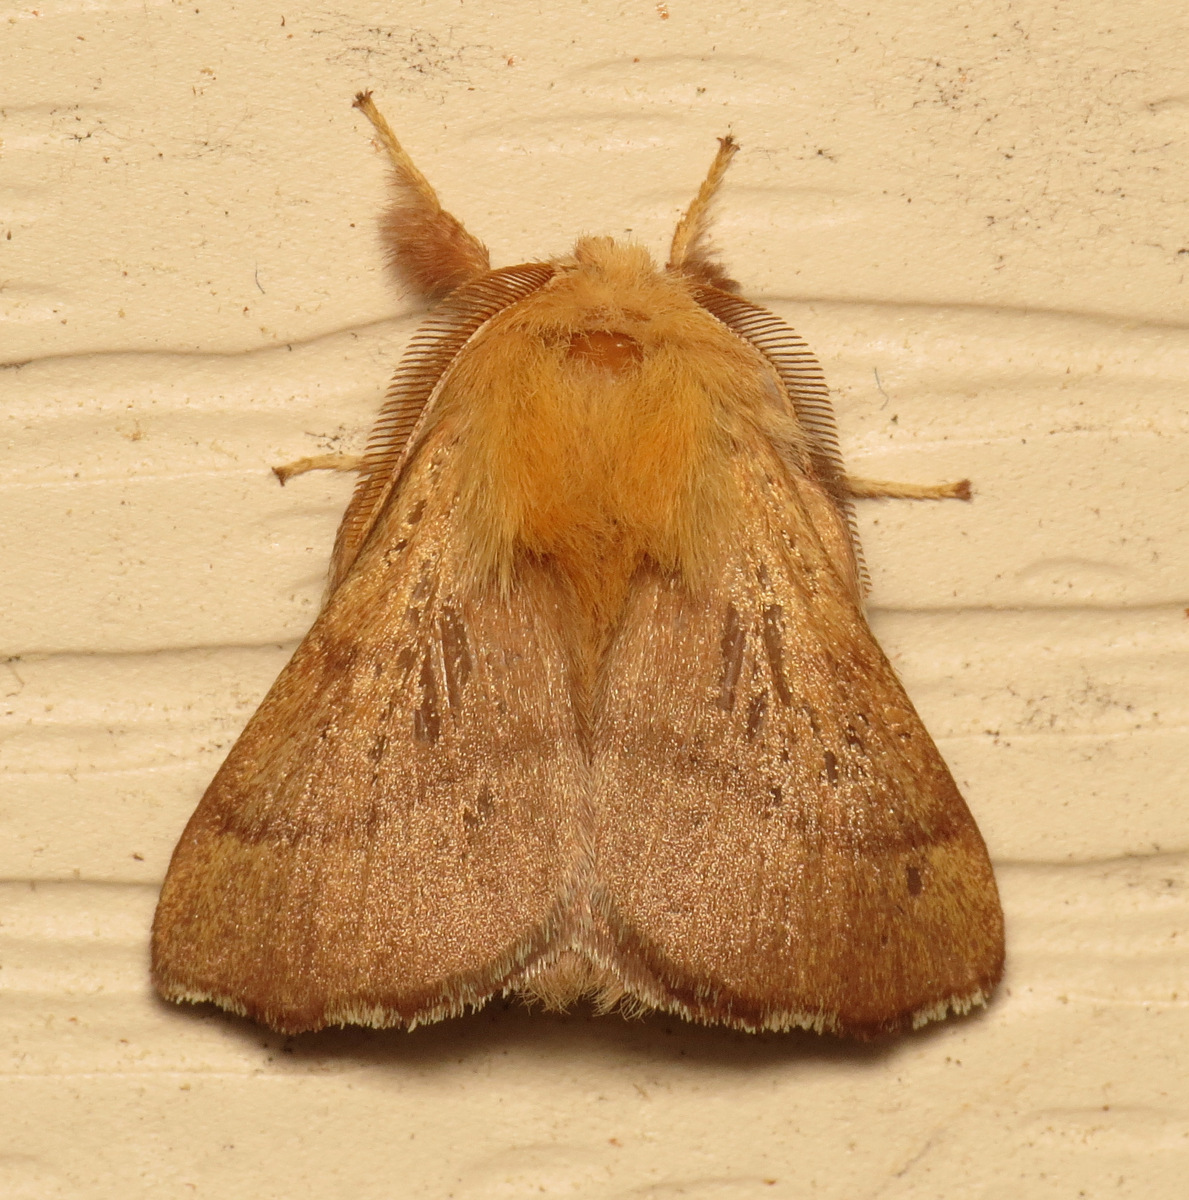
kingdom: Animalia
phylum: Arthropoda
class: Insecta
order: Lepidoptera
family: Lasiocampidae
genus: Malacosoma
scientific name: Malacosoma disstria
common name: Forest tent caterpillar
